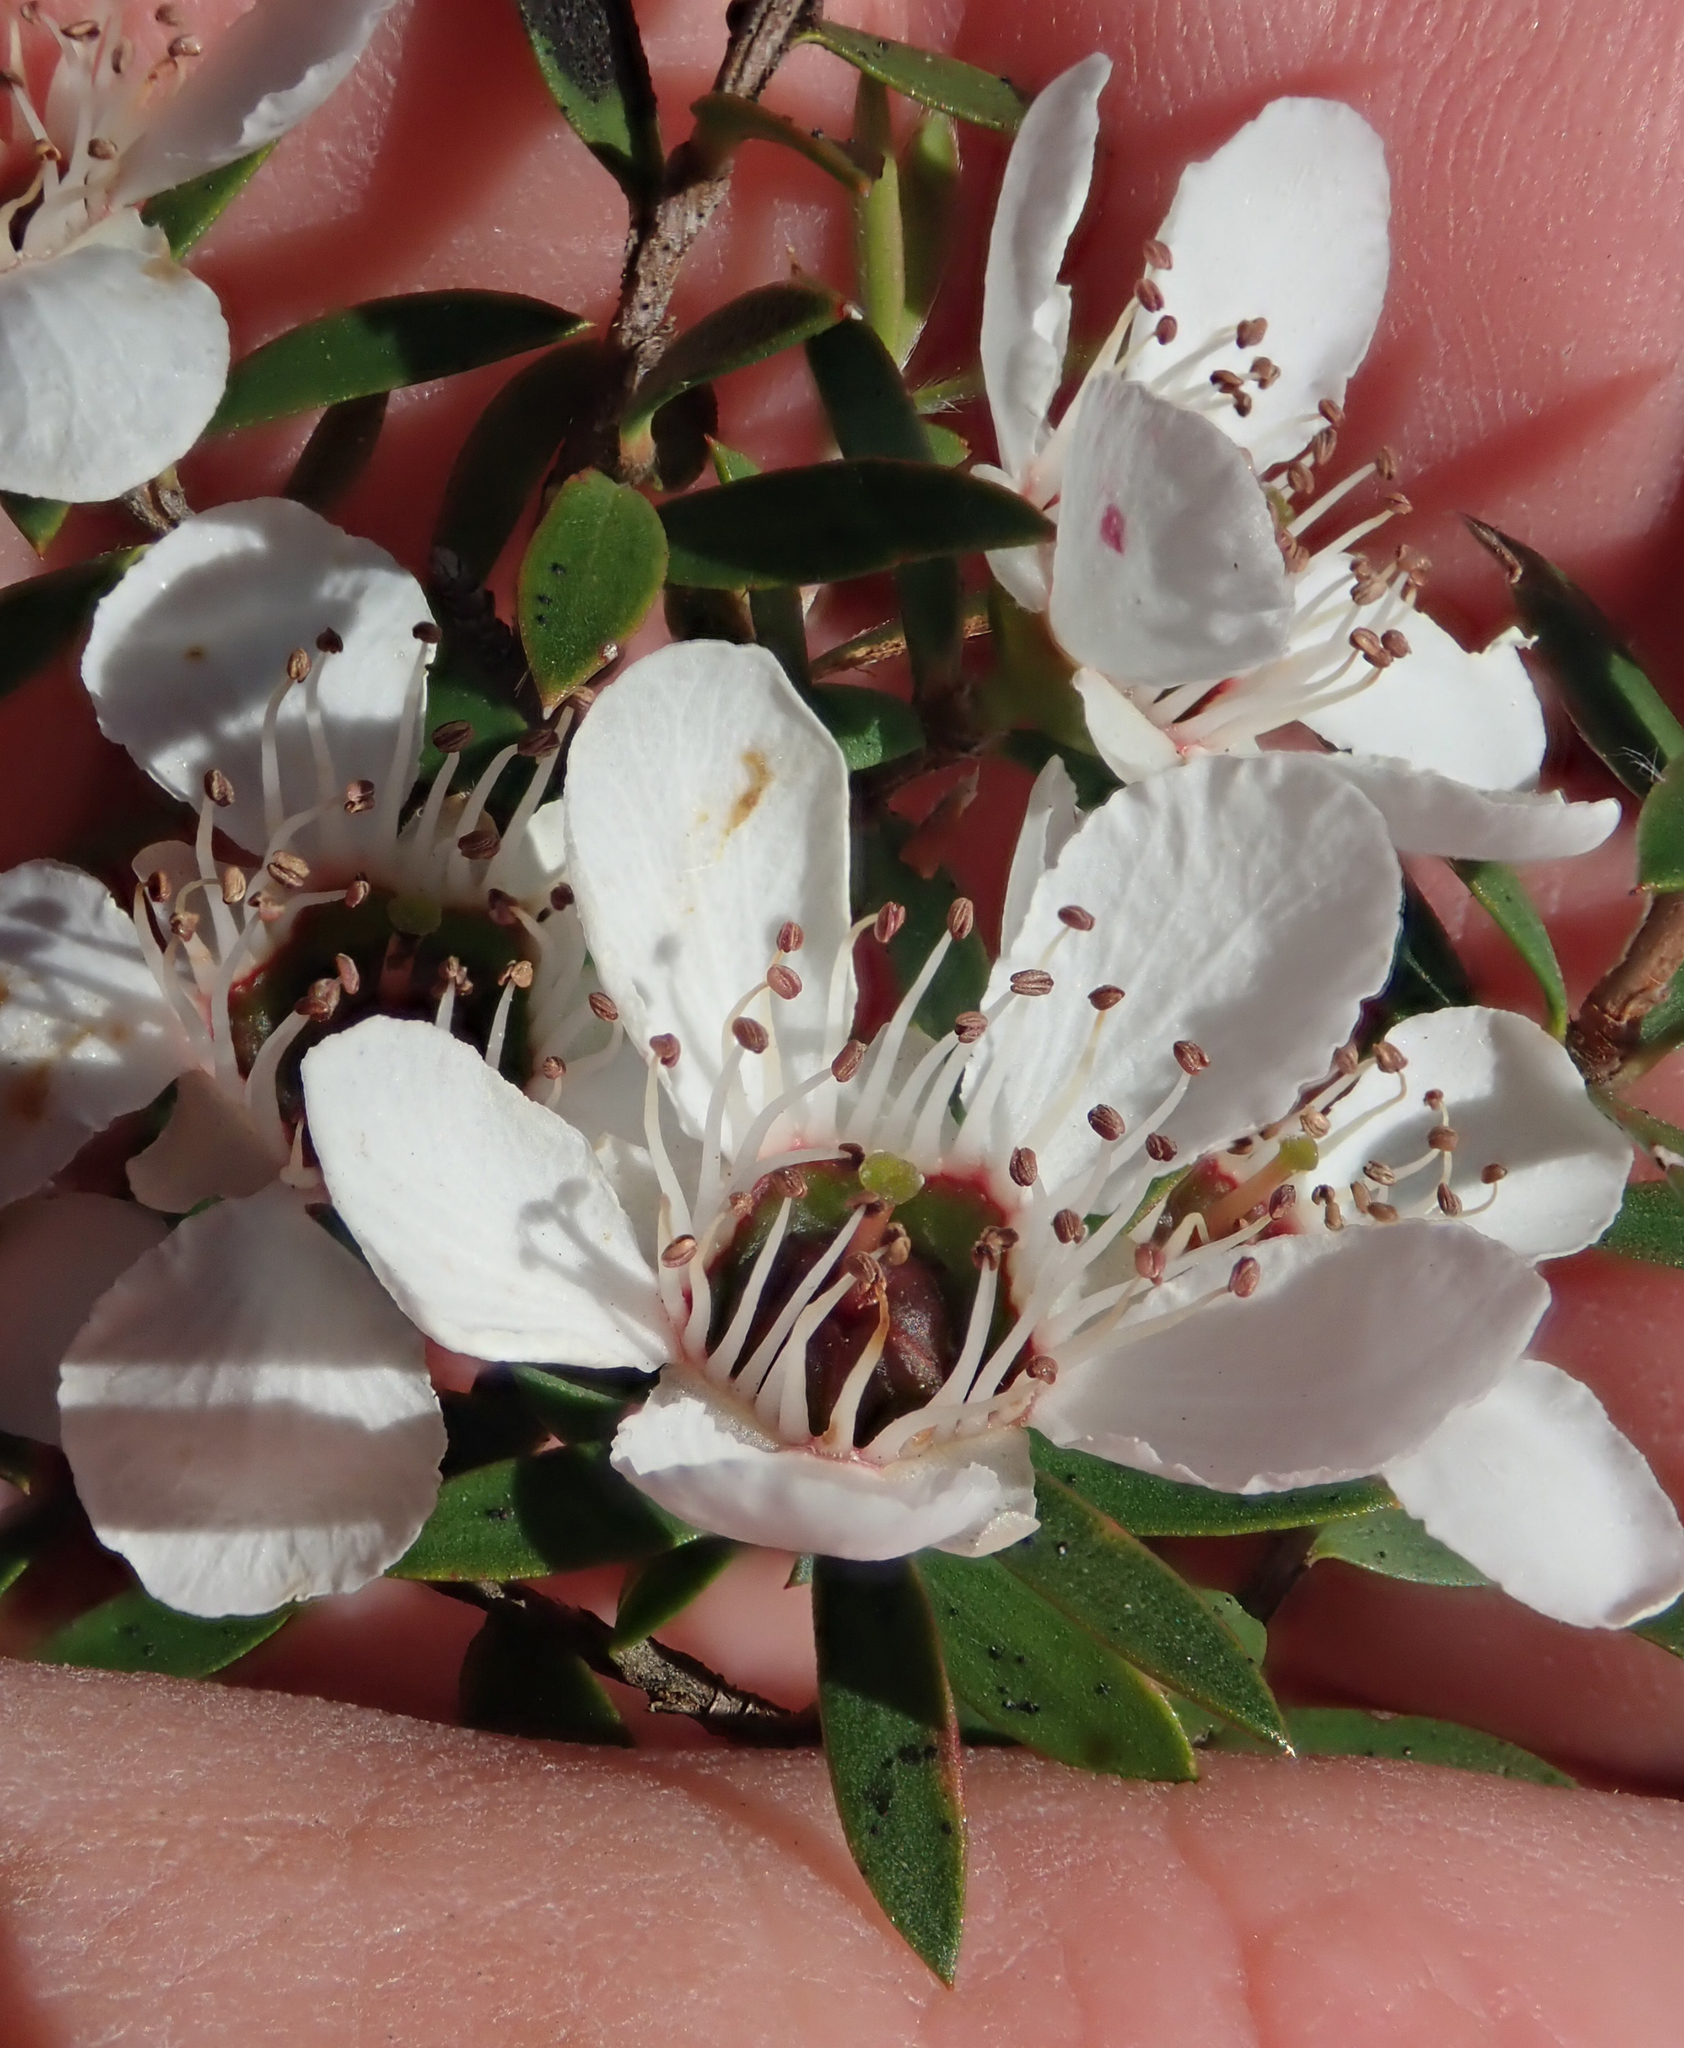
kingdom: Plantae
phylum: Tracheophyta
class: Magnoliopsida
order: Myrtales
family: Myrtaceae
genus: Leptospermum
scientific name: Leptospermum scoparium
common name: Broom tea-tree
